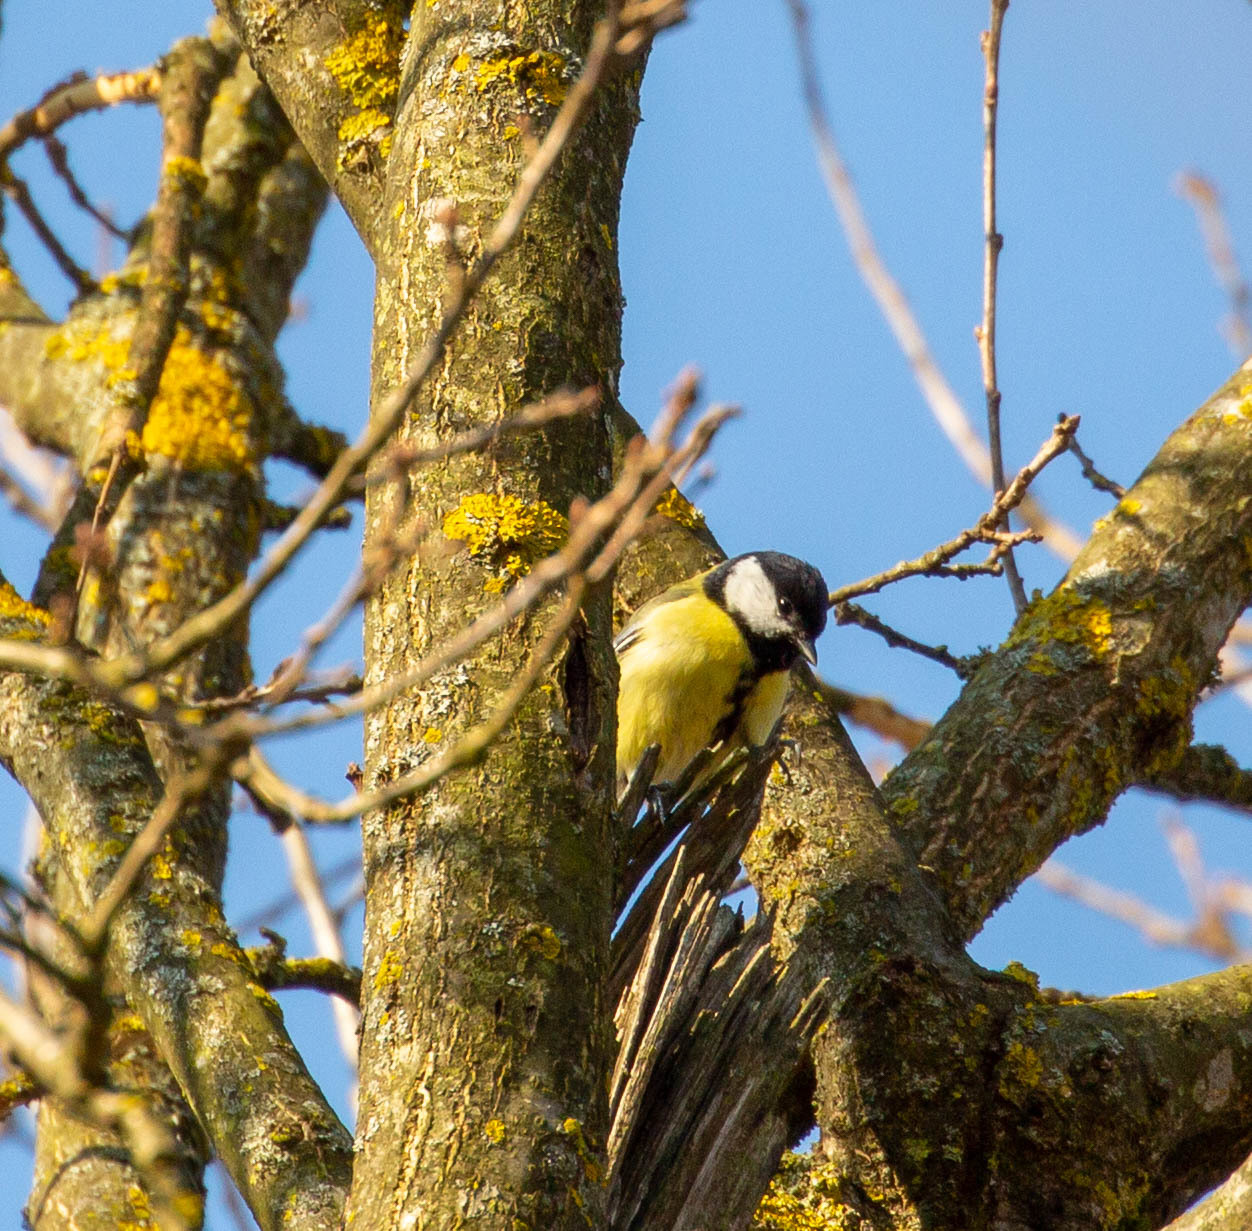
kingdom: Animalia
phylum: Chordata
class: Aves
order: Passeriformes
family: Paridae
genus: Parus
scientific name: Parus major
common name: Great tit
